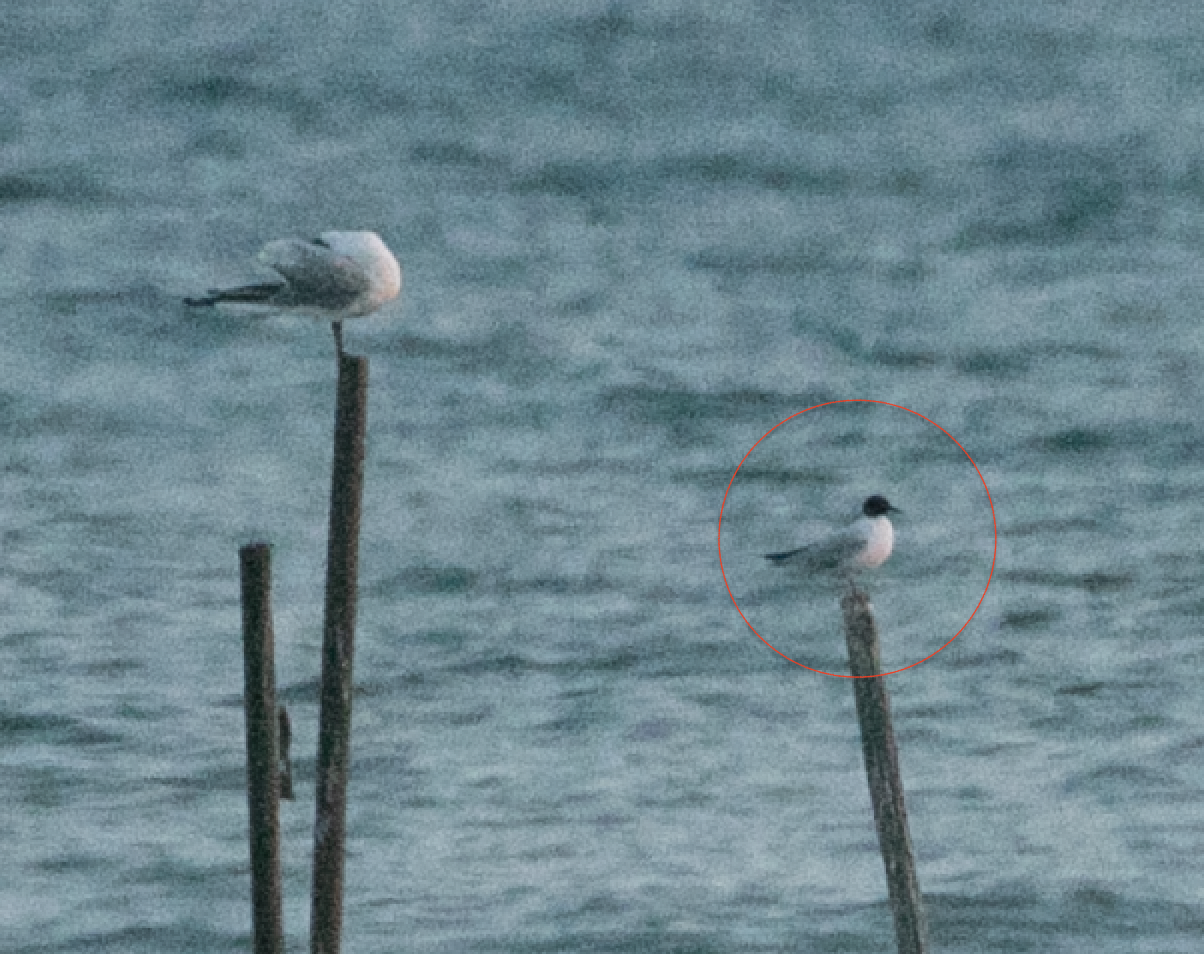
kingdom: Animalia
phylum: Chordata
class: Aves
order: Charadriiformes
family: Laridae
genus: Hydrocoloeus
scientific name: Hydrocoloeus minutus
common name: Little gull
